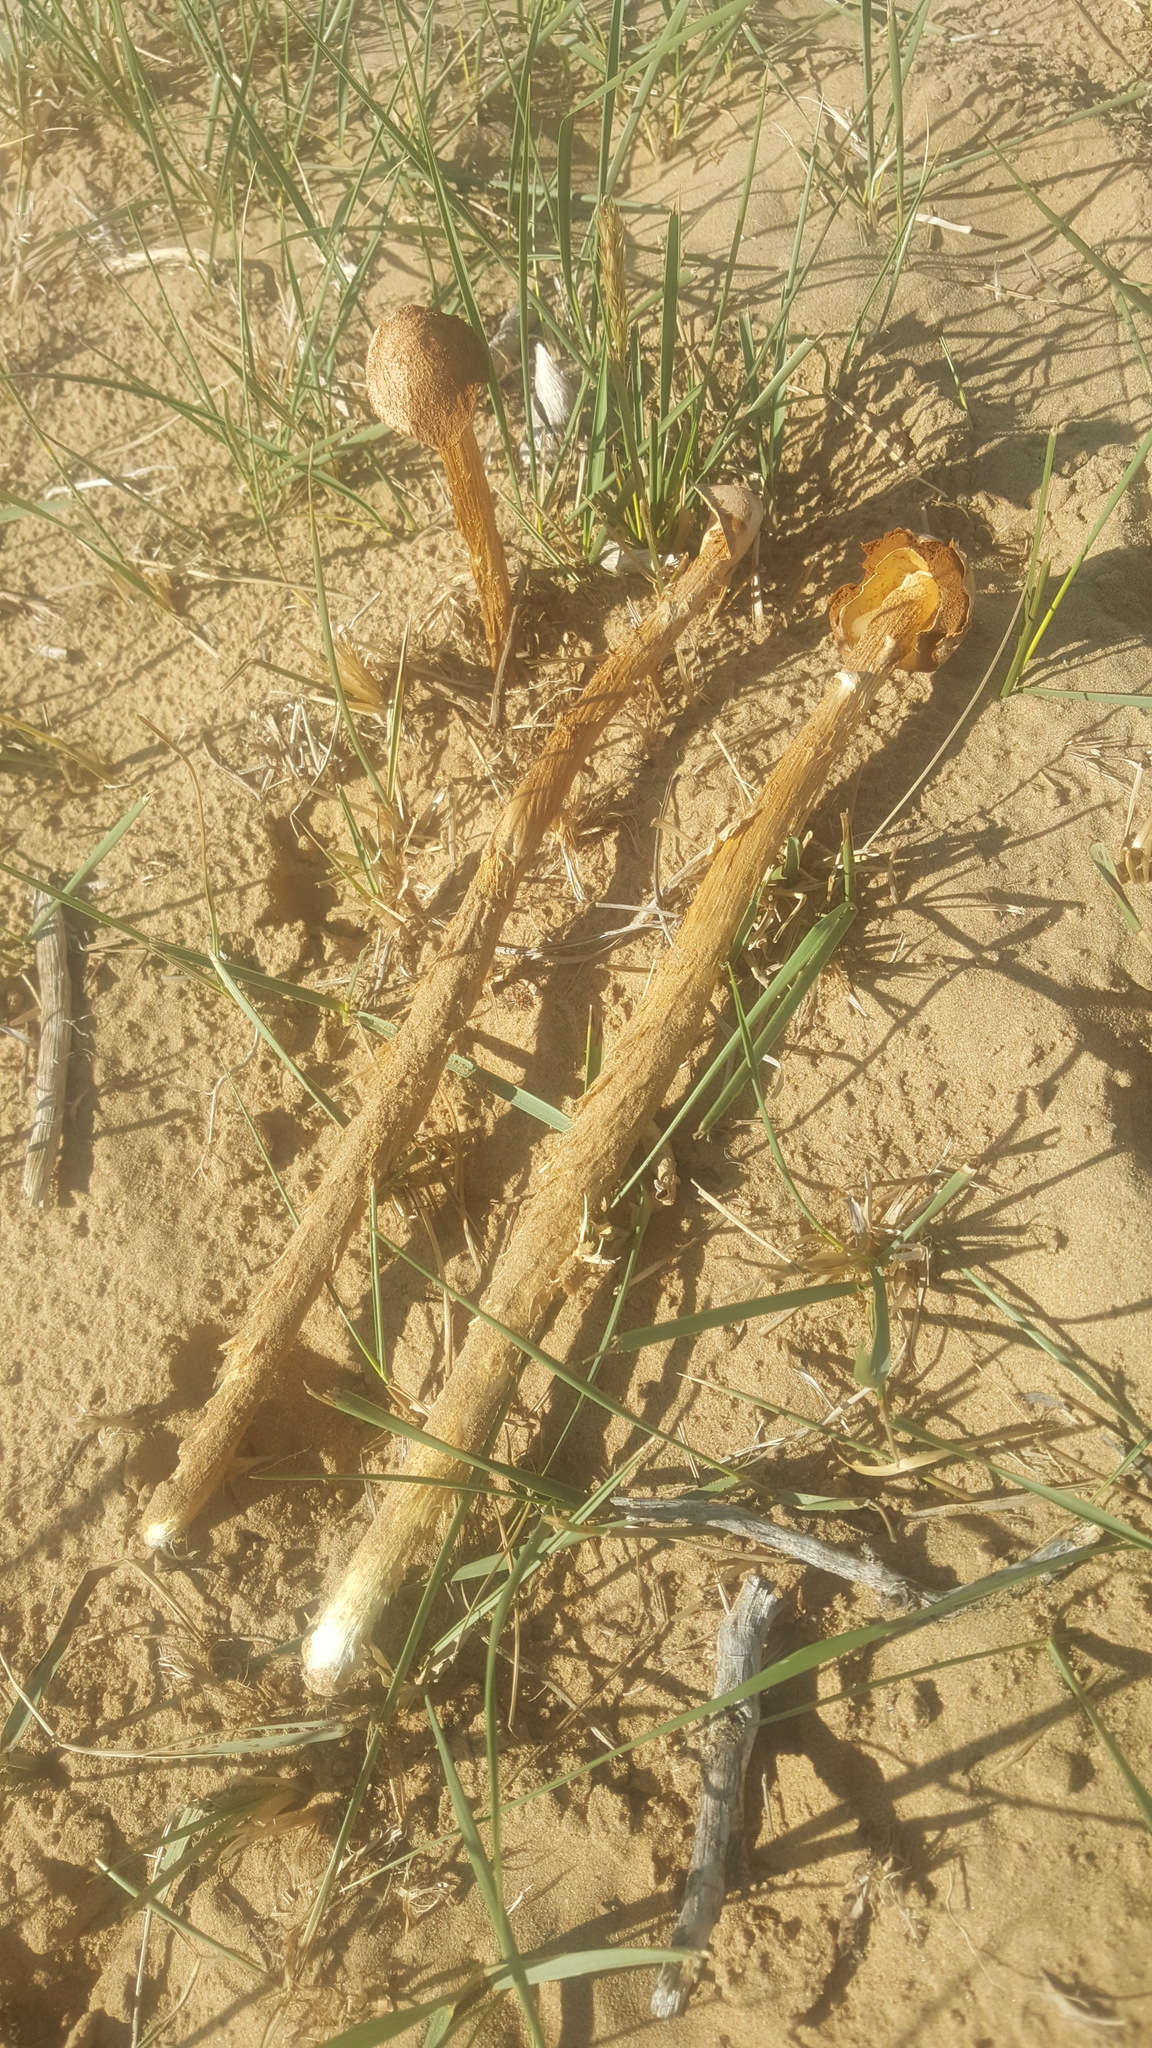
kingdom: Fungi
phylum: Basidiomycota
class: Agaricomycetes
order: Agaricales
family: Agaricaceae
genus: Battarrea
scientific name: Battarrea phalloides
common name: Sandy stiltball
